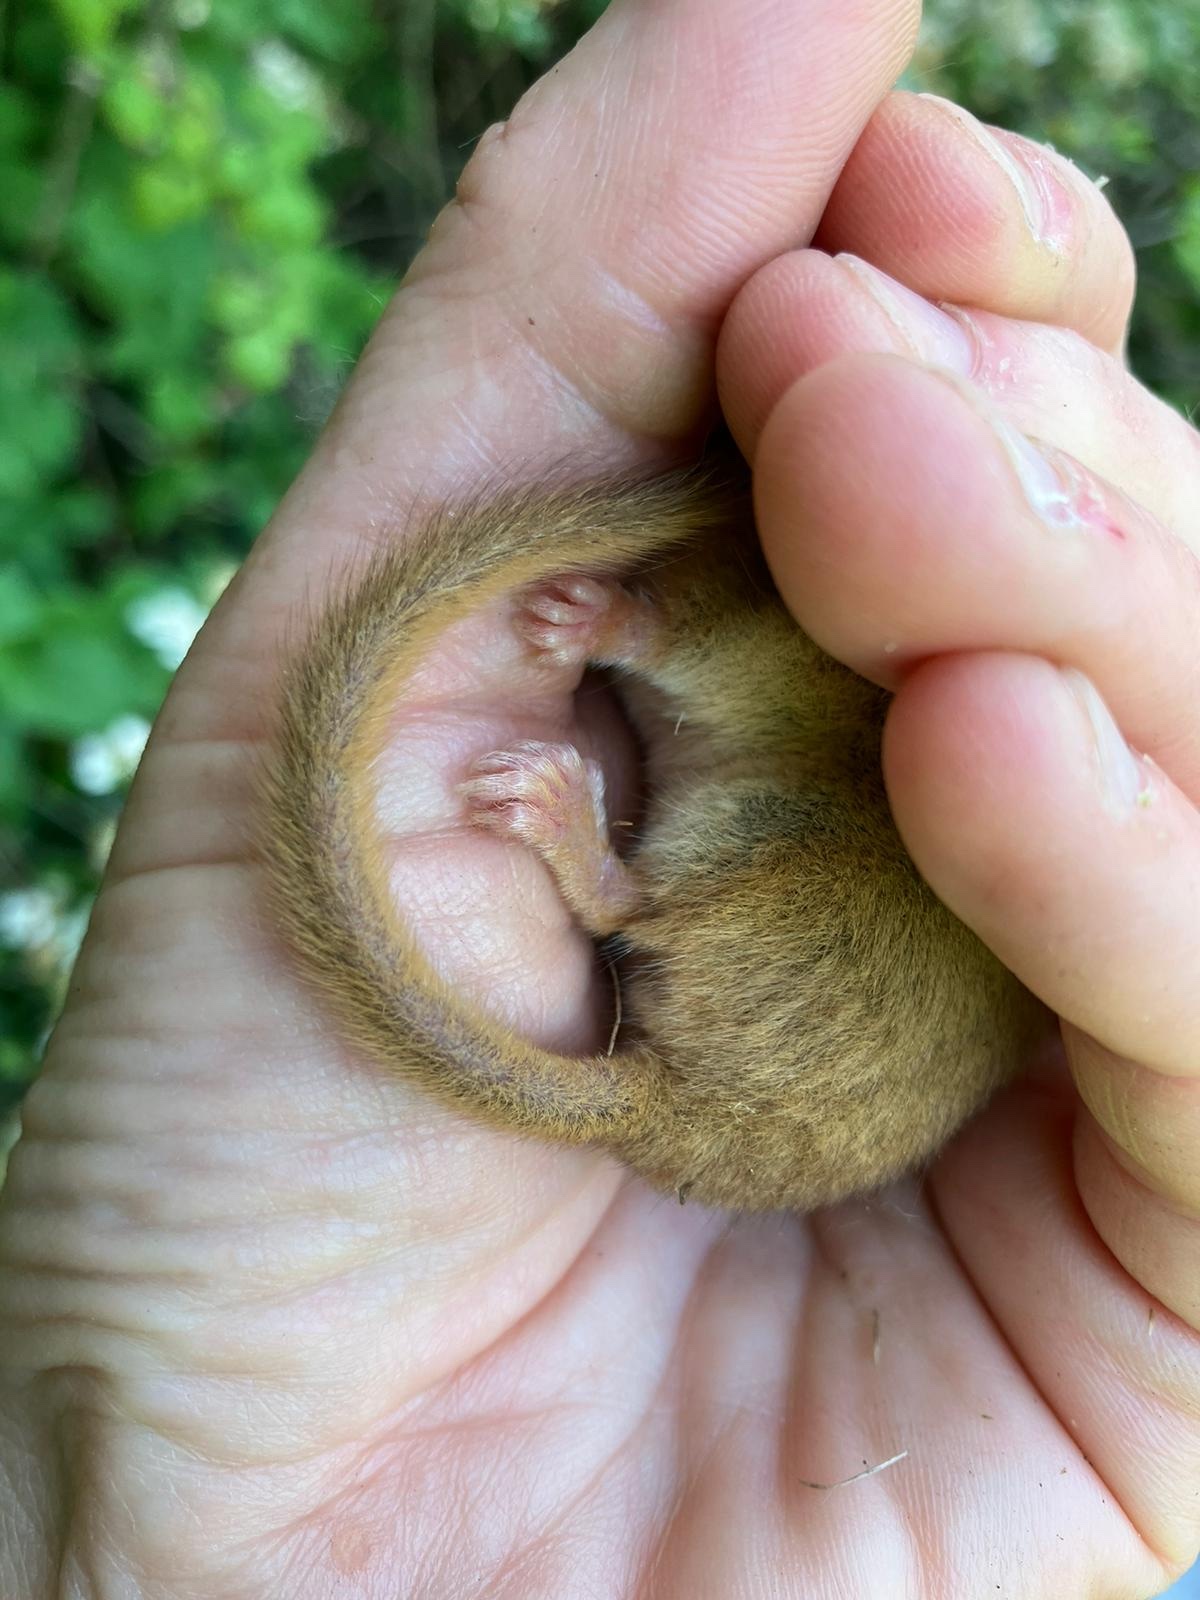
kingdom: Animalia
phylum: Chordata
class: Mammalia
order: Rodentia
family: Gliridae
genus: Muscardinus
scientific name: Muscardinus avellanarius
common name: Hazel dormouse
